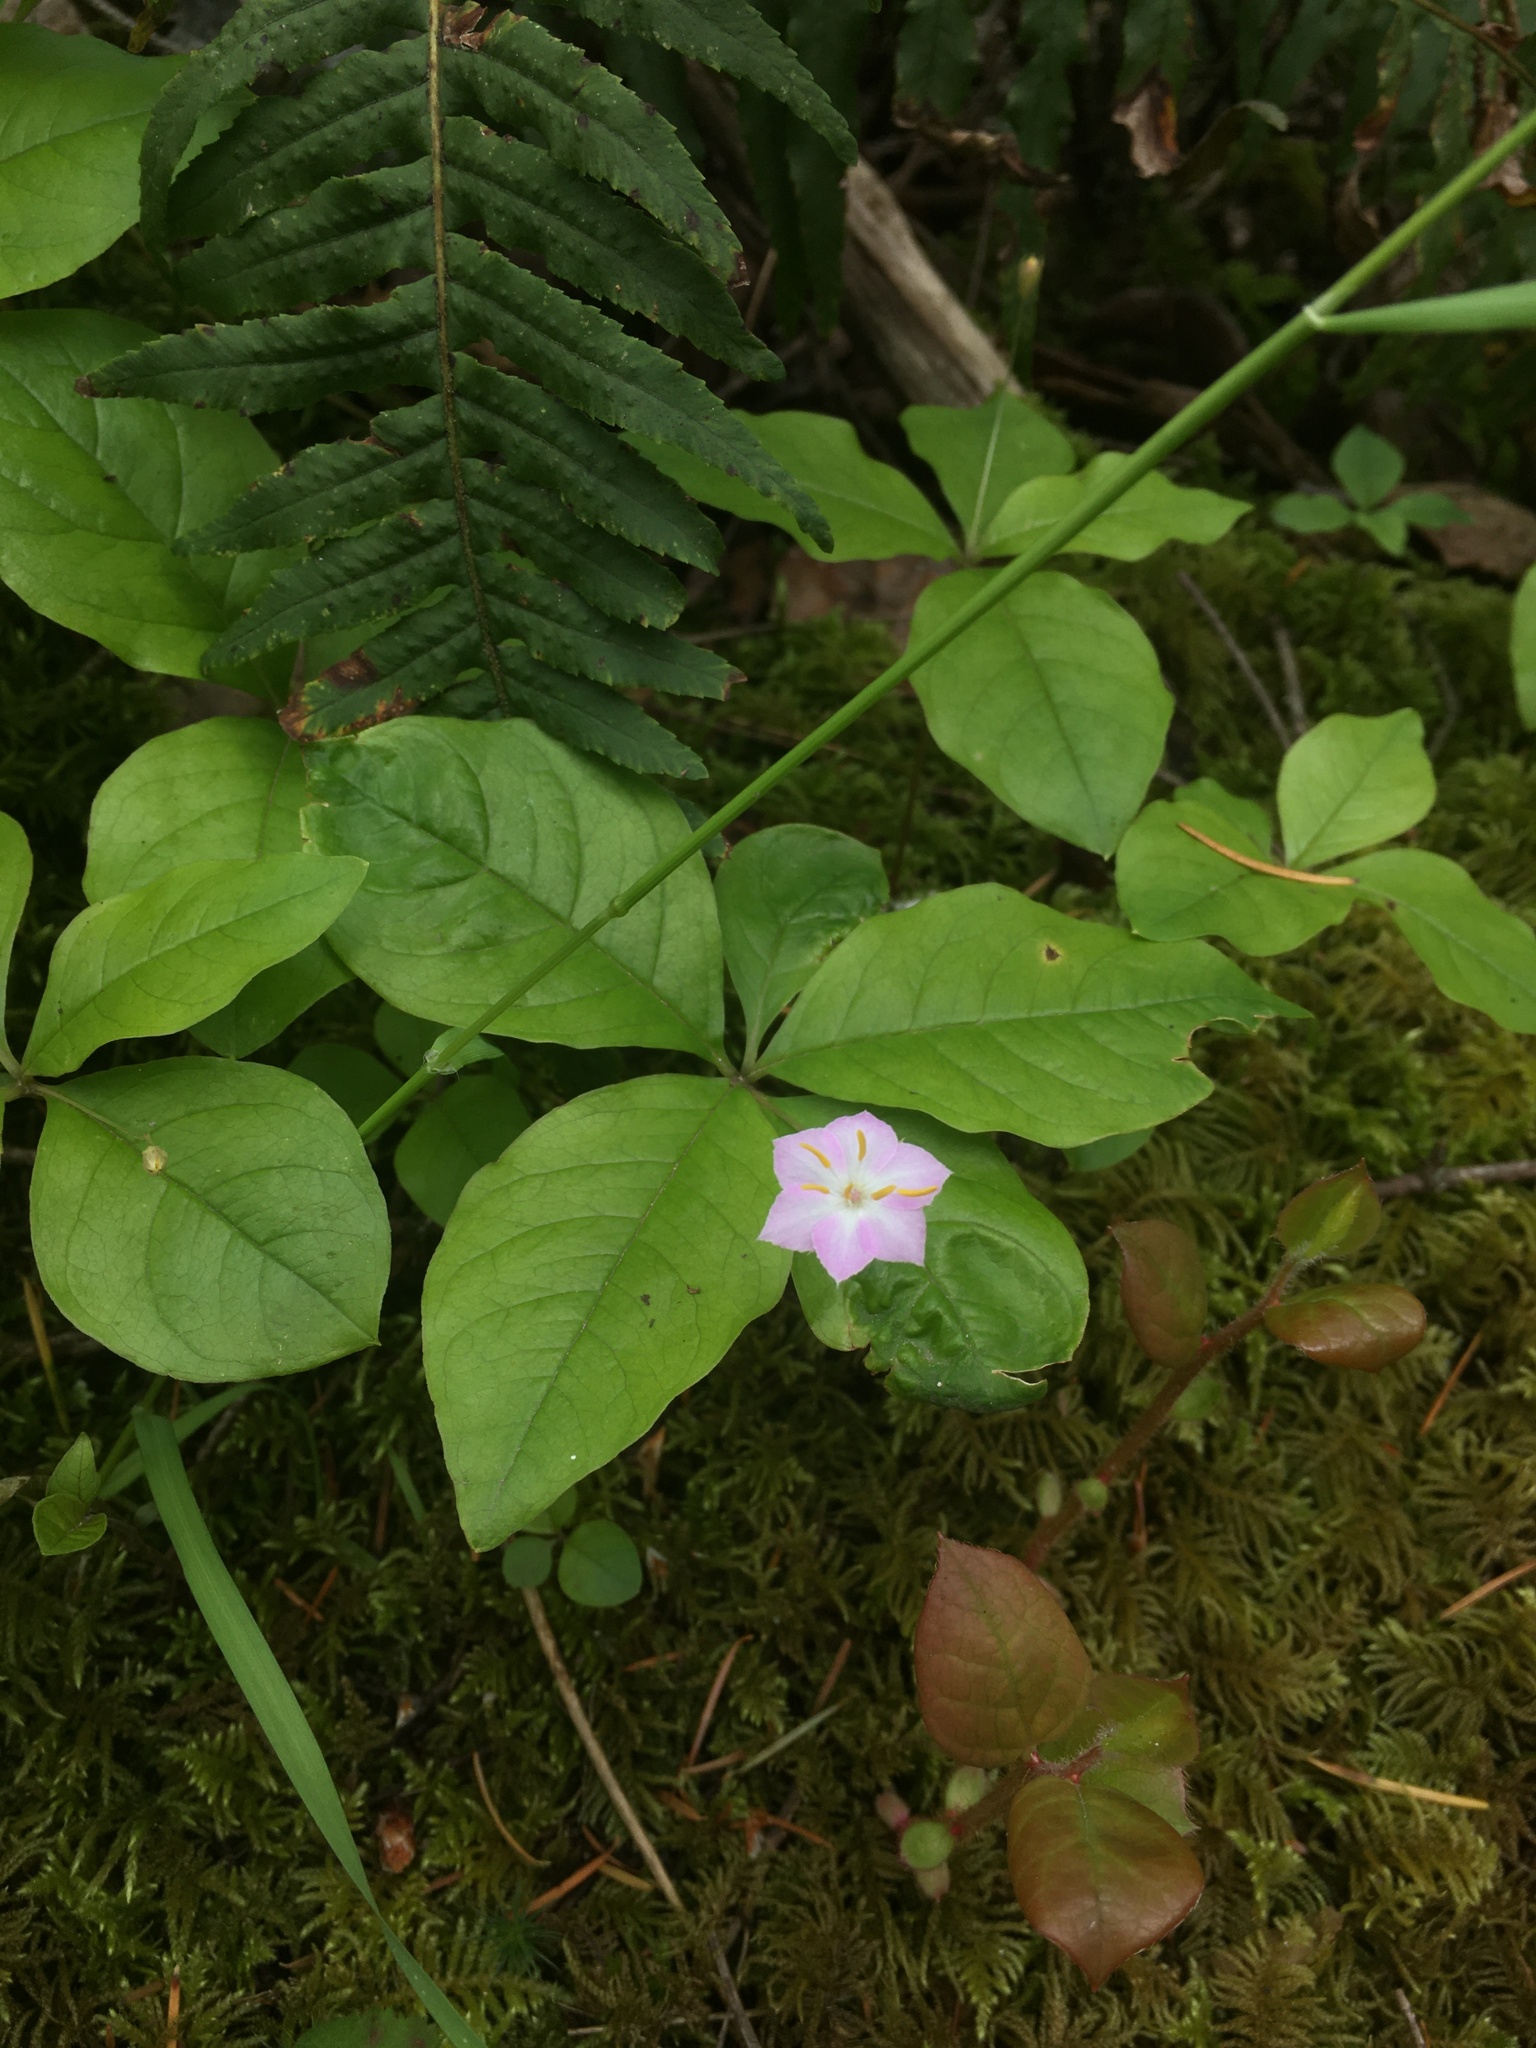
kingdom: Plantae
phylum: Tracheophyta
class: Magnoliopsida
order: Ericales
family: Primulaceae
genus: Lysimachia
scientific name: Lysimachia latifolia
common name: Pacific starflower
